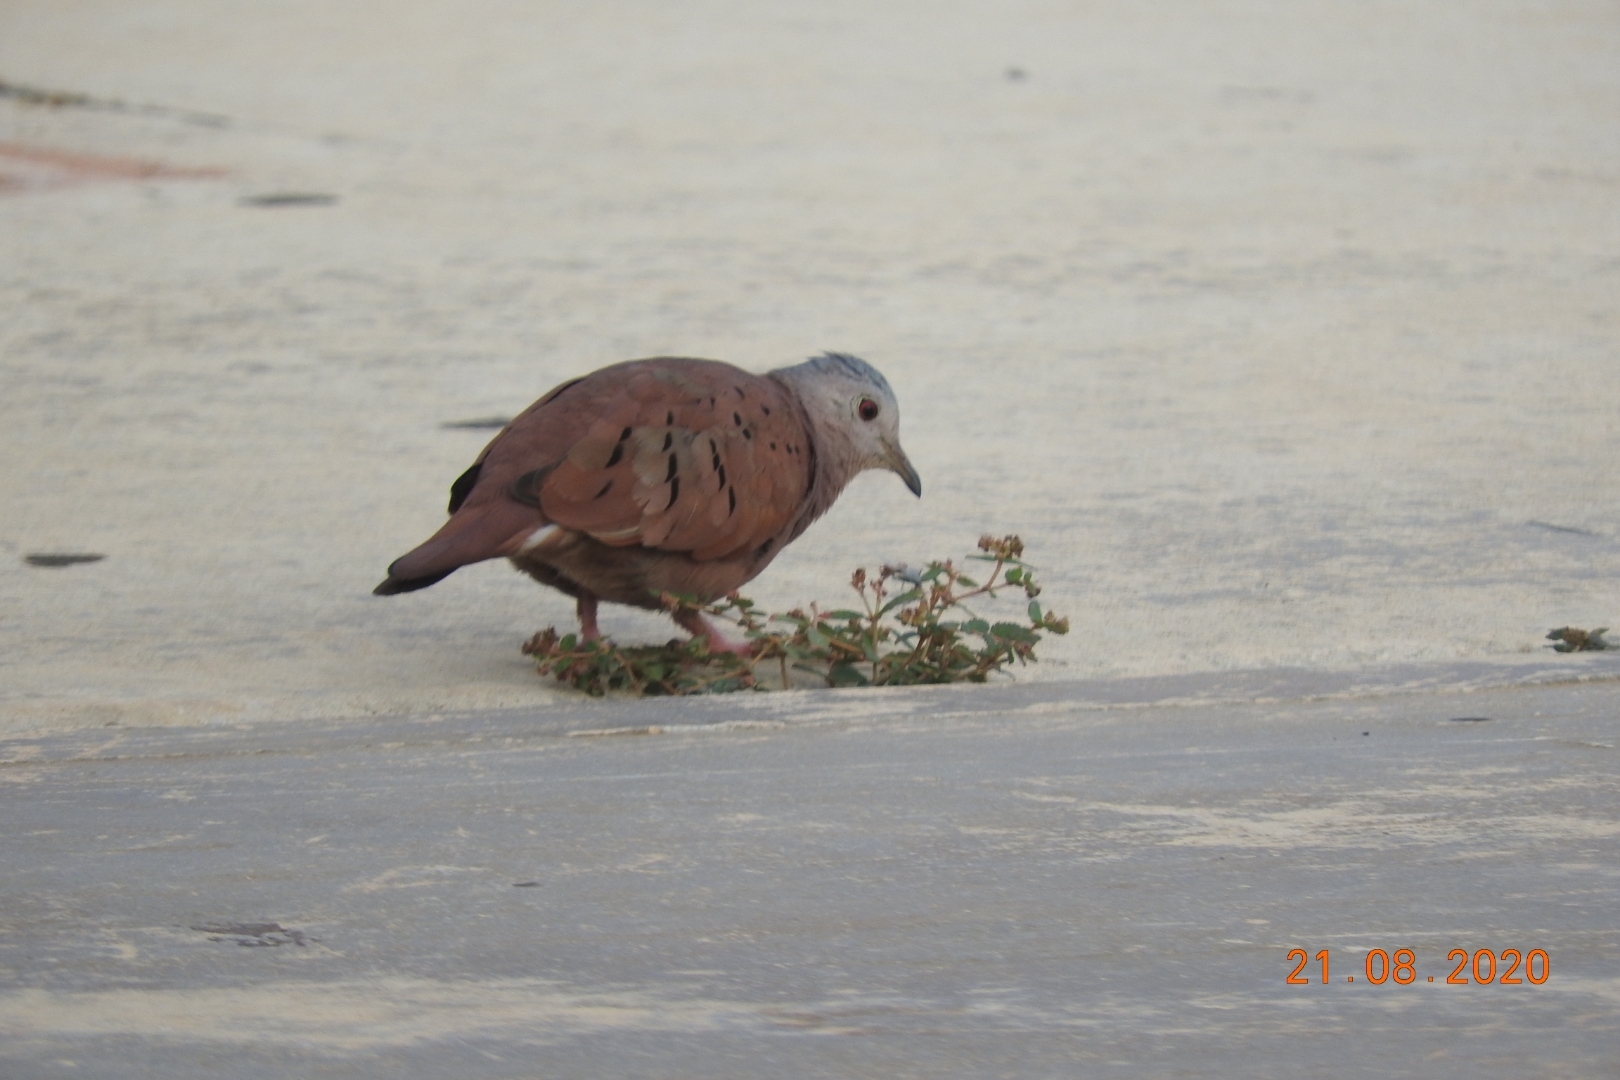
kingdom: Animalia
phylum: Chordata
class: Aves
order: Columbiformes
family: Columbidae
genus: Columbina
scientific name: Columbina talpacoti
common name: Ruddy ground dove
